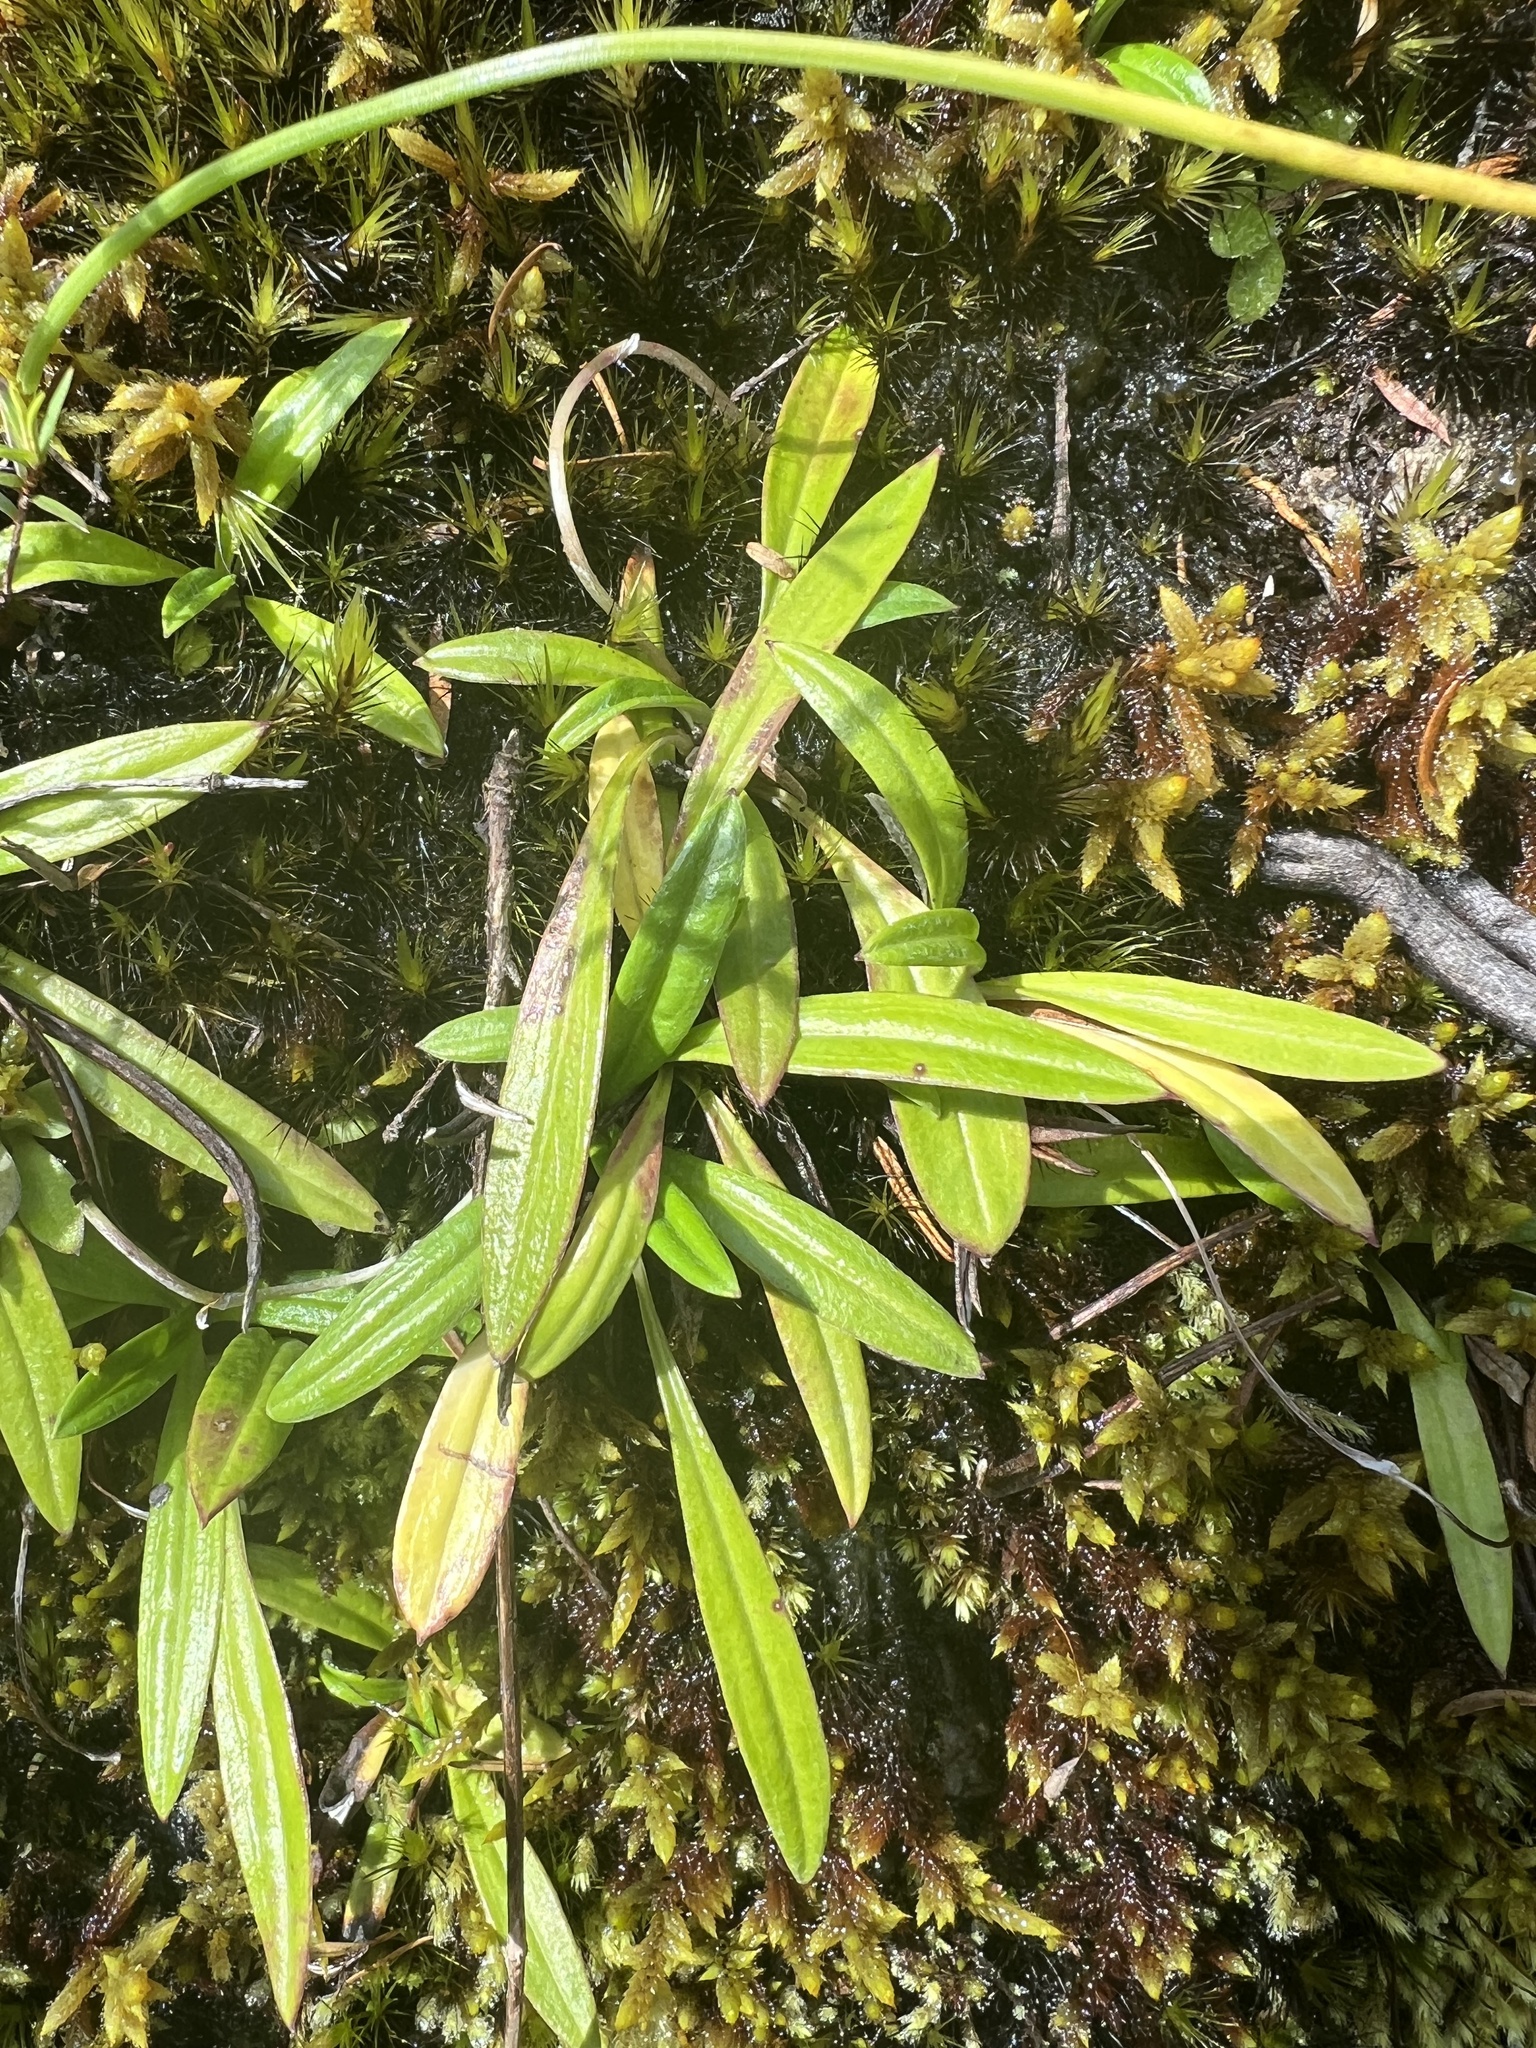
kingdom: Plantae
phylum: Tracheophyta
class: Magnoliopsida
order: Asterales
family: Asteraceae
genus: Euchiton
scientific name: Euchiton japonicus
